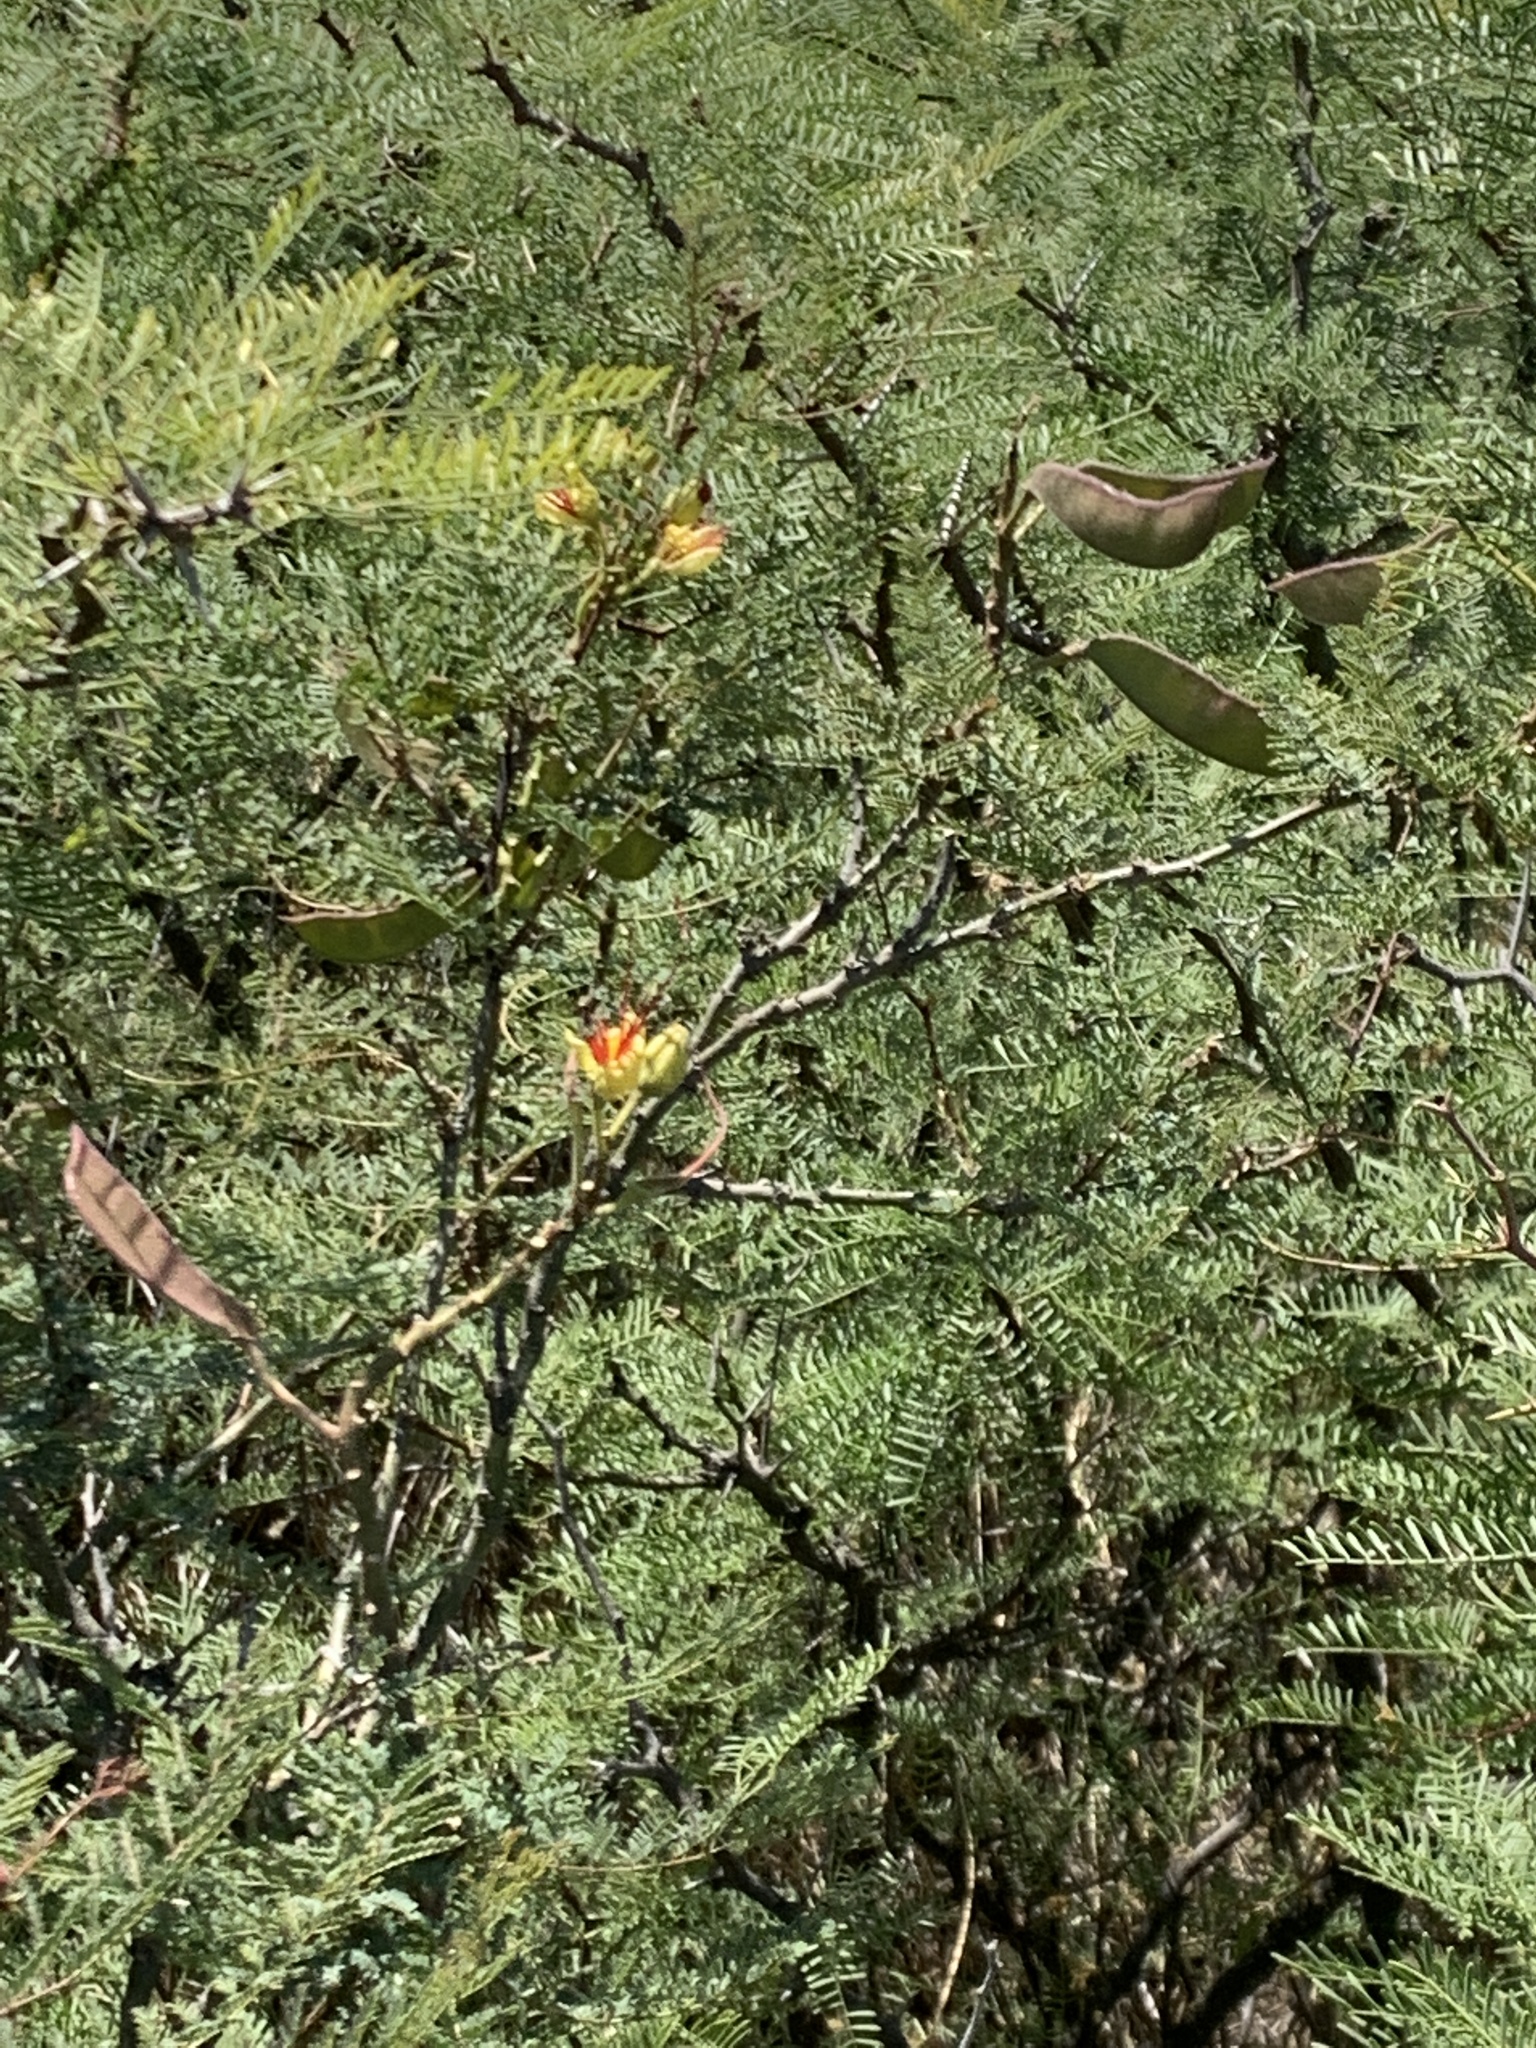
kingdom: Plantae
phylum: Tracheophyta
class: Magnoliopsida
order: Fabales
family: Fabaceae
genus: Erythrostemon
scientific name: Erythrostemon gilliesii
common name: Bird-of-paradise shrub
